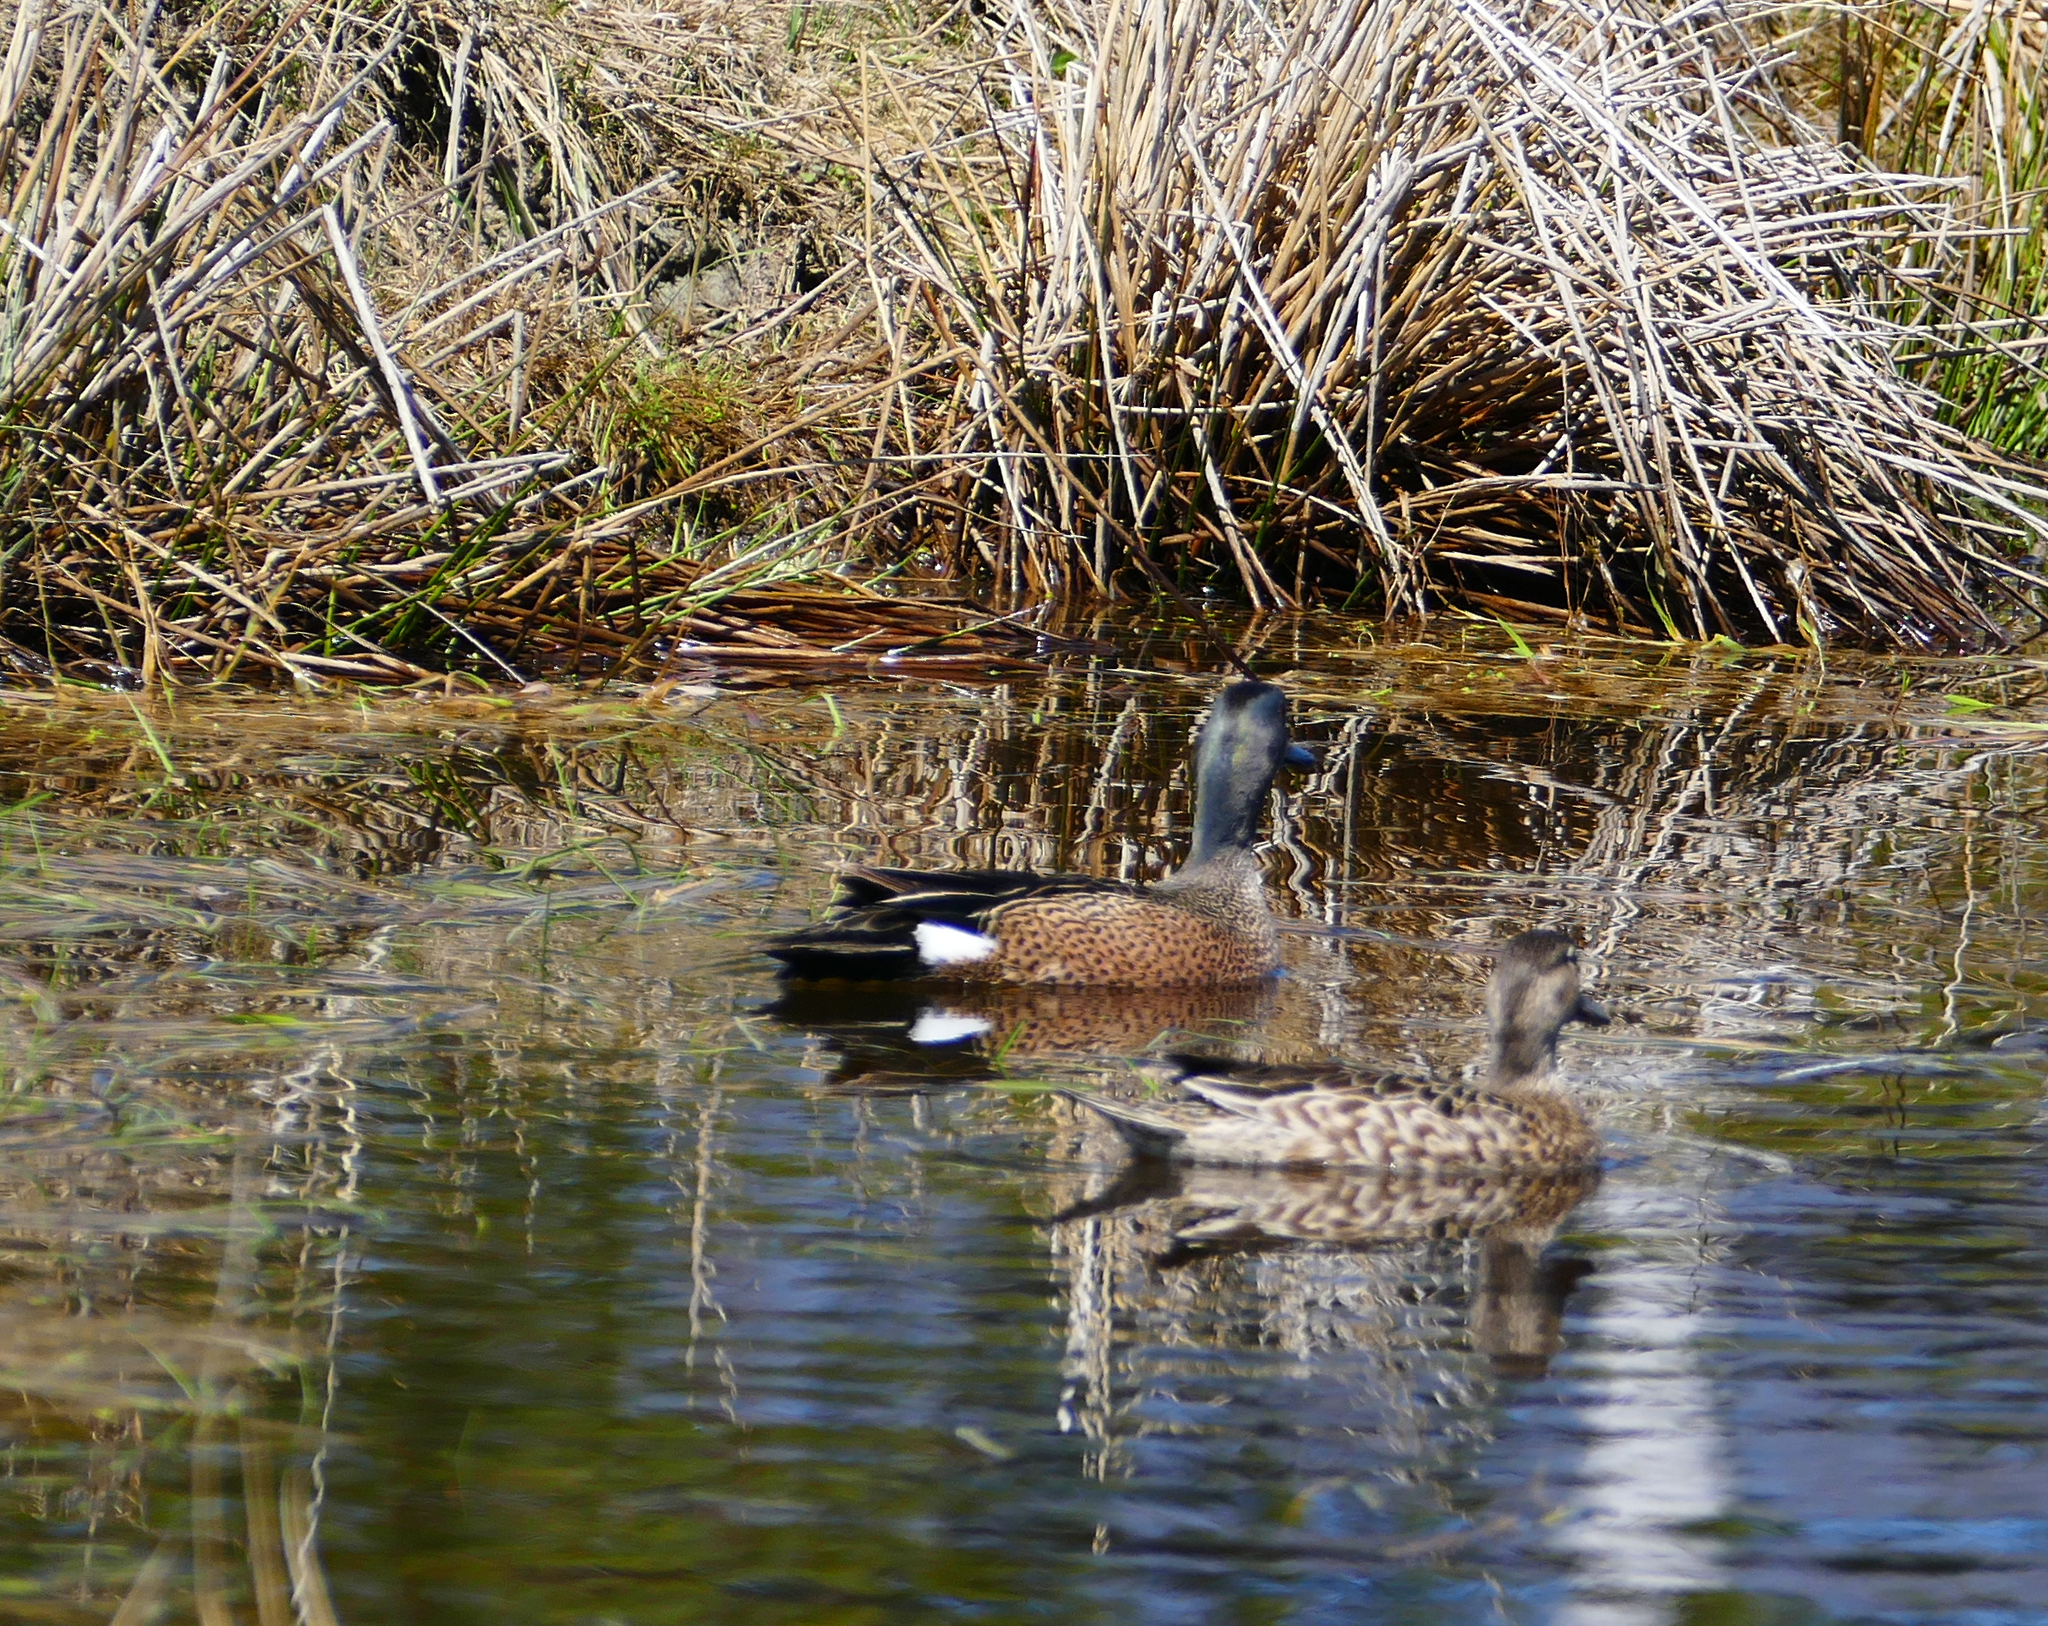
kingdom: Animalia
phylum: Chordata
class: Aves
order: Anseriformes
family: Anatidae
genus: Spatula
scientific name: Spatula discors
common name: Blue-winged teal
